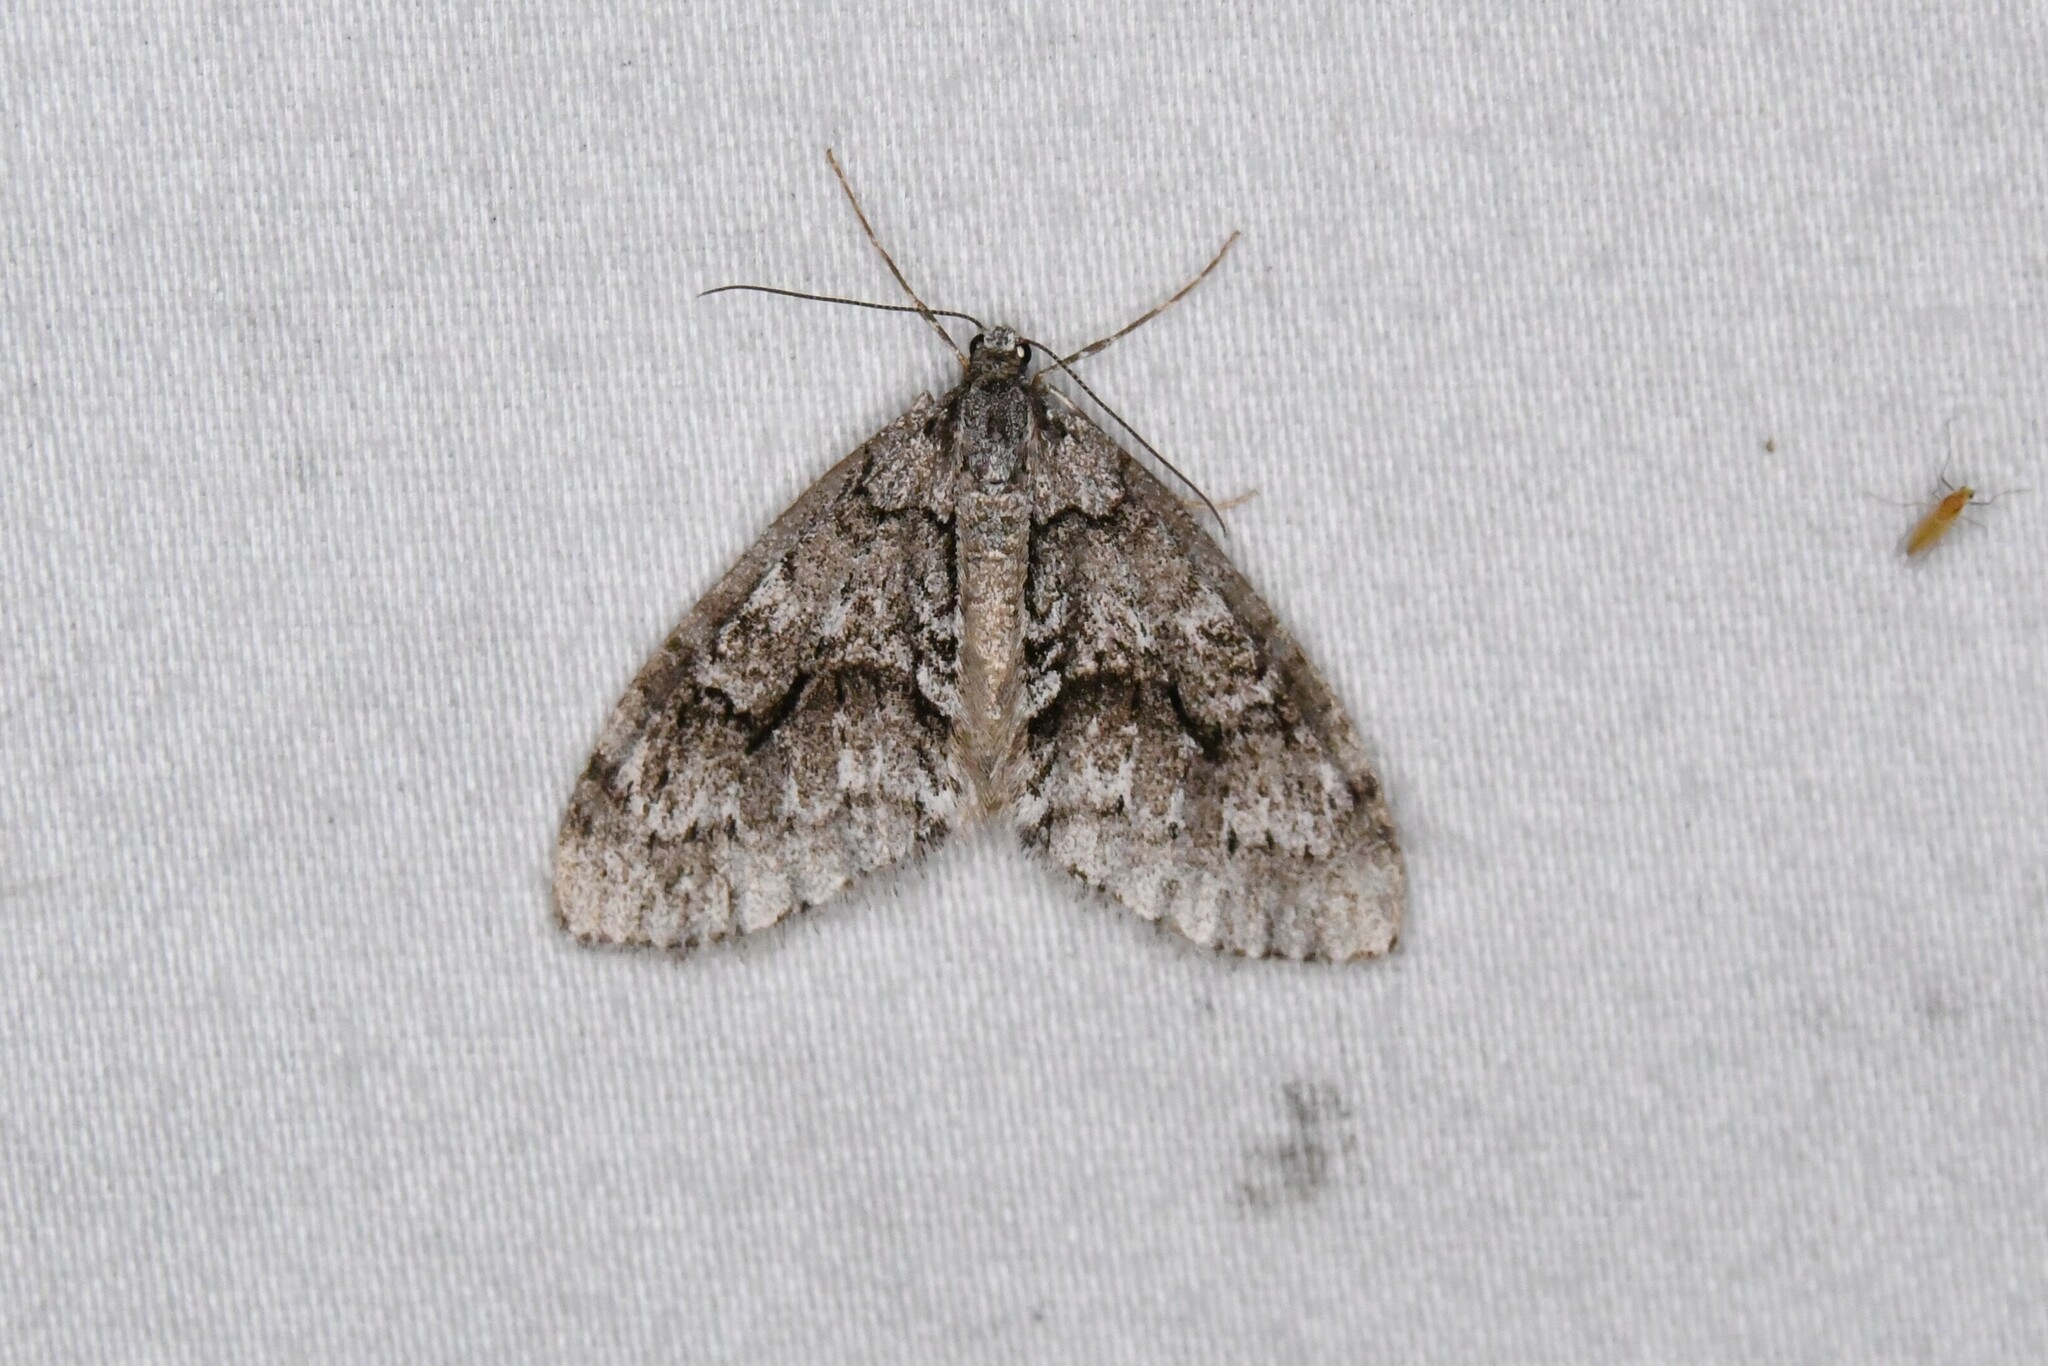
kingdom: Animalia
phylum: Arthropoda
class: Insecta
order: Lepidoptera
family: Geometridae
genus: Cladara
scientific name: Cladara limitaria
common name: Mottled gray carpet
